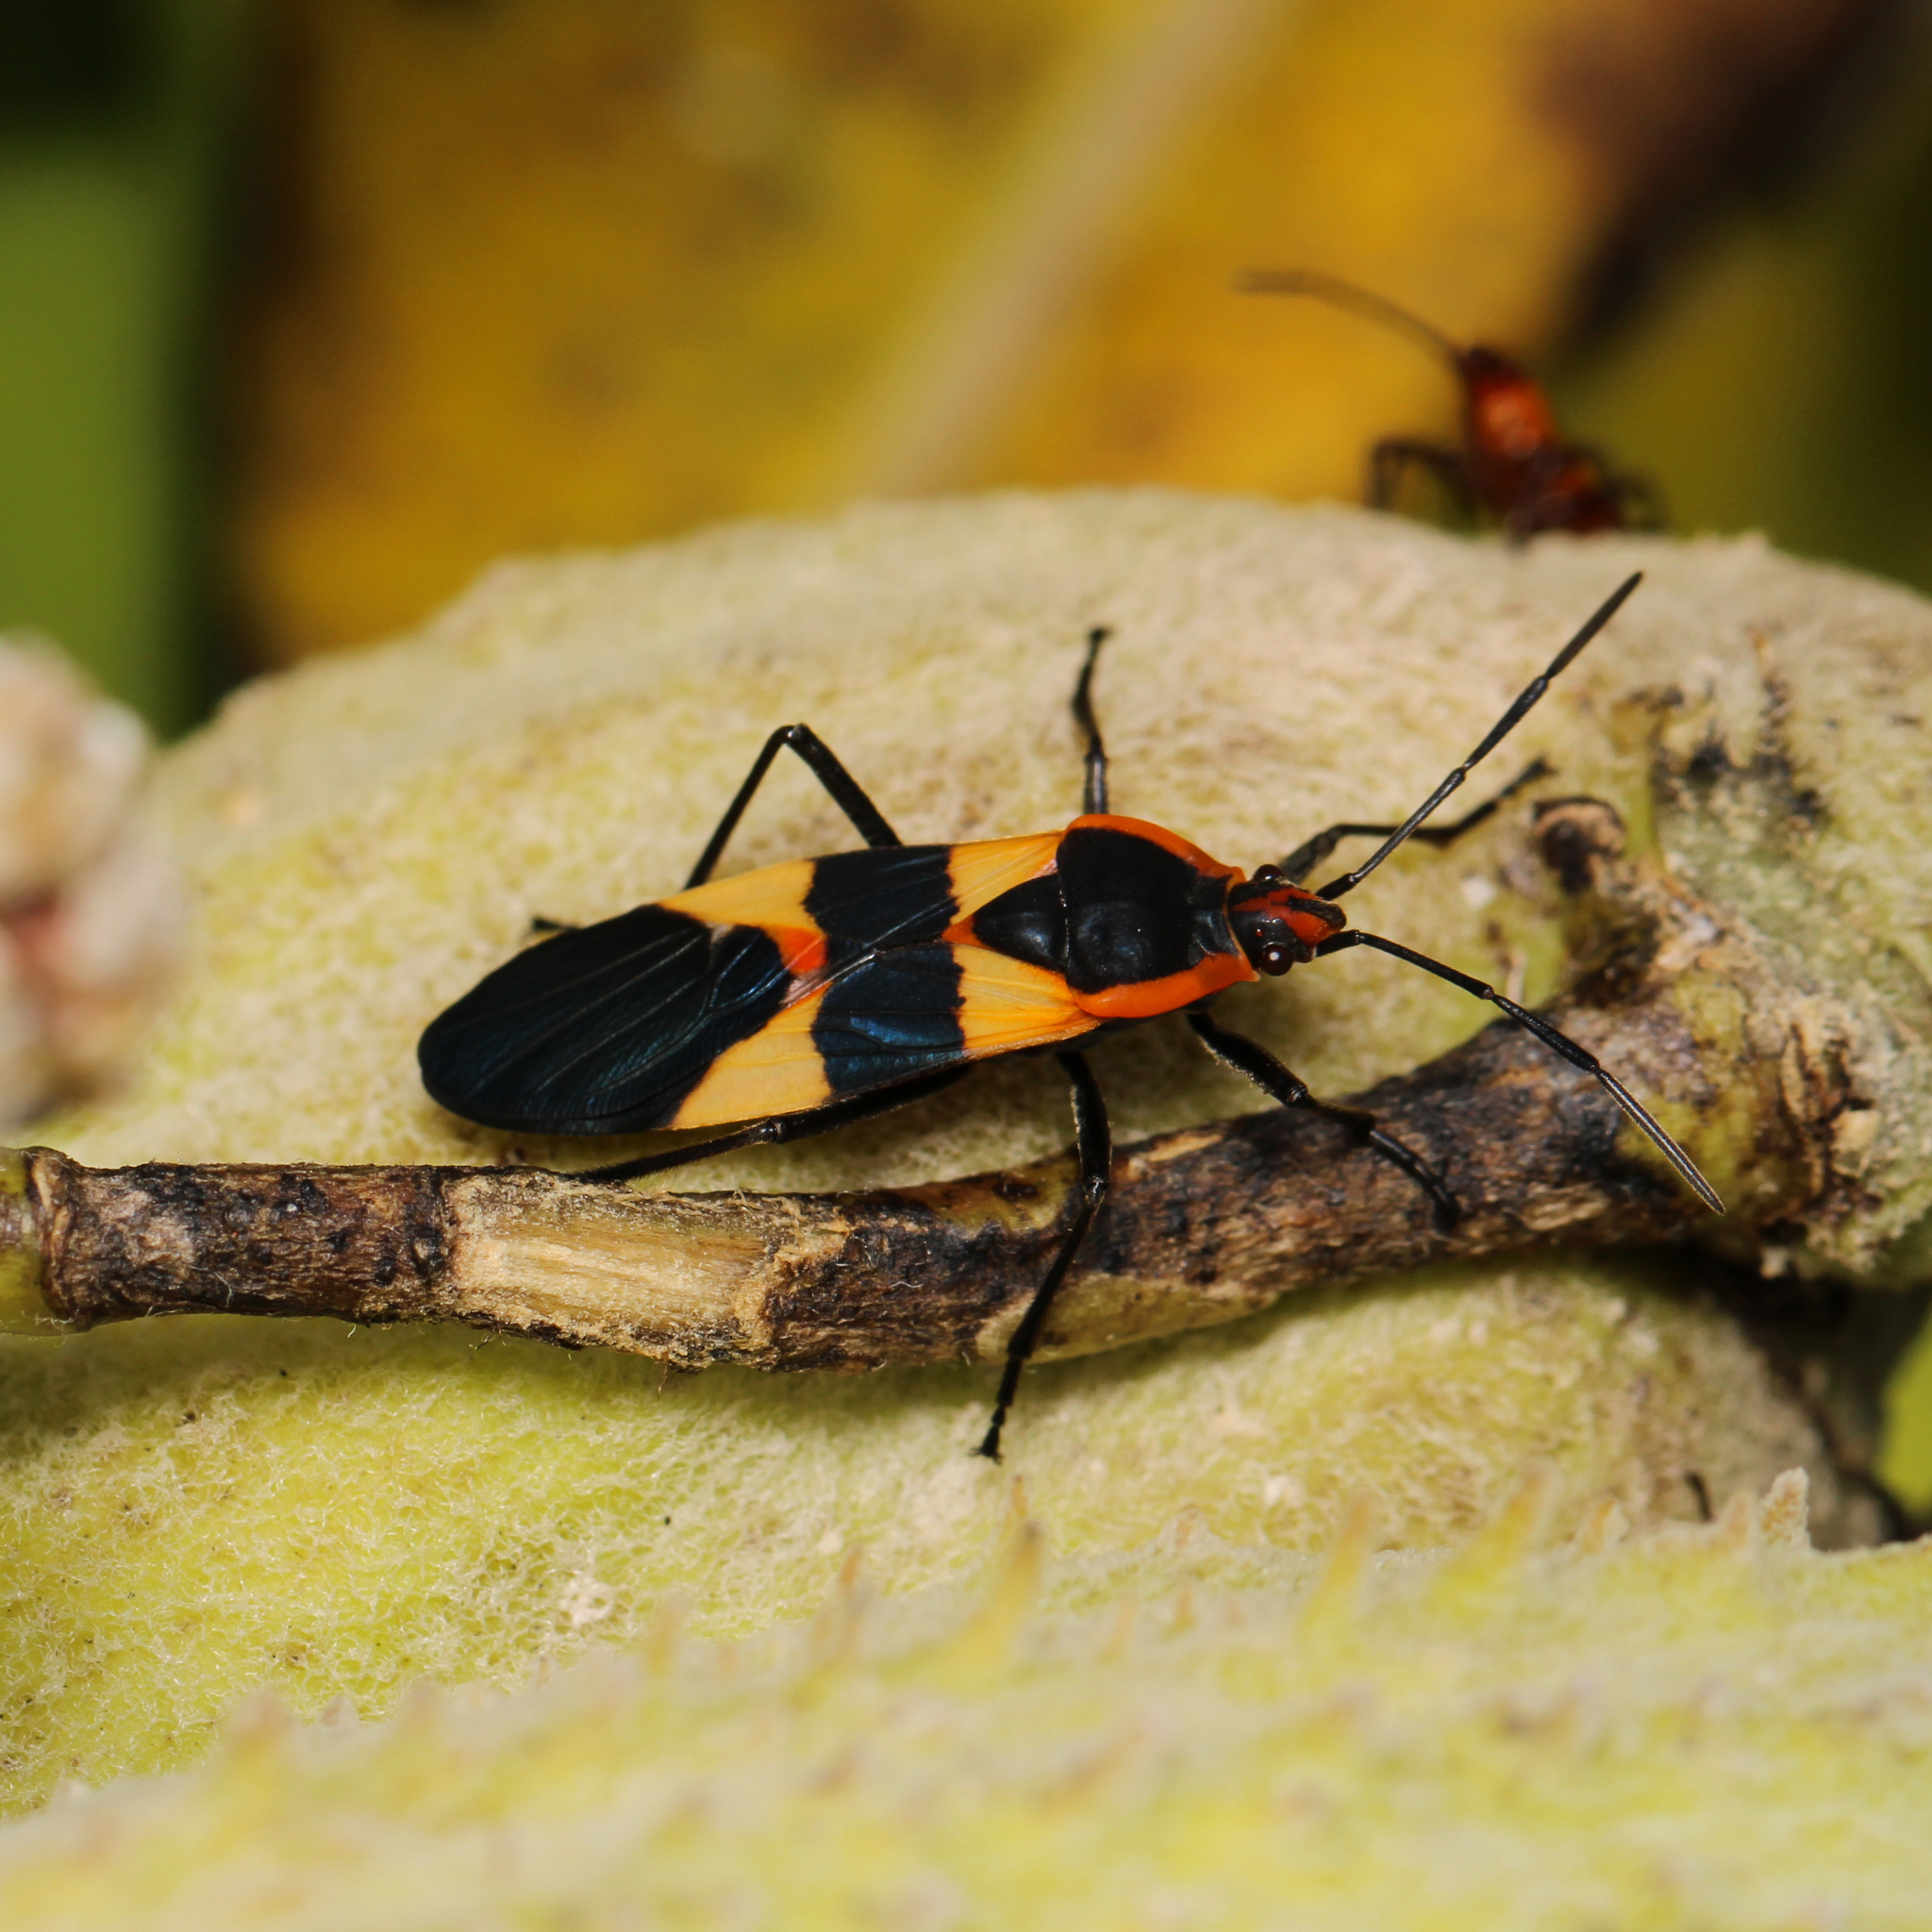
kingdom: Animalia
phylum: Arthropoda
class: Insecta
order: Hemiptera
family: Lygaeidae
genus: Oncopeltus
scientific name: Oncopeltus fasciatus
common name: Large milkweed bug
